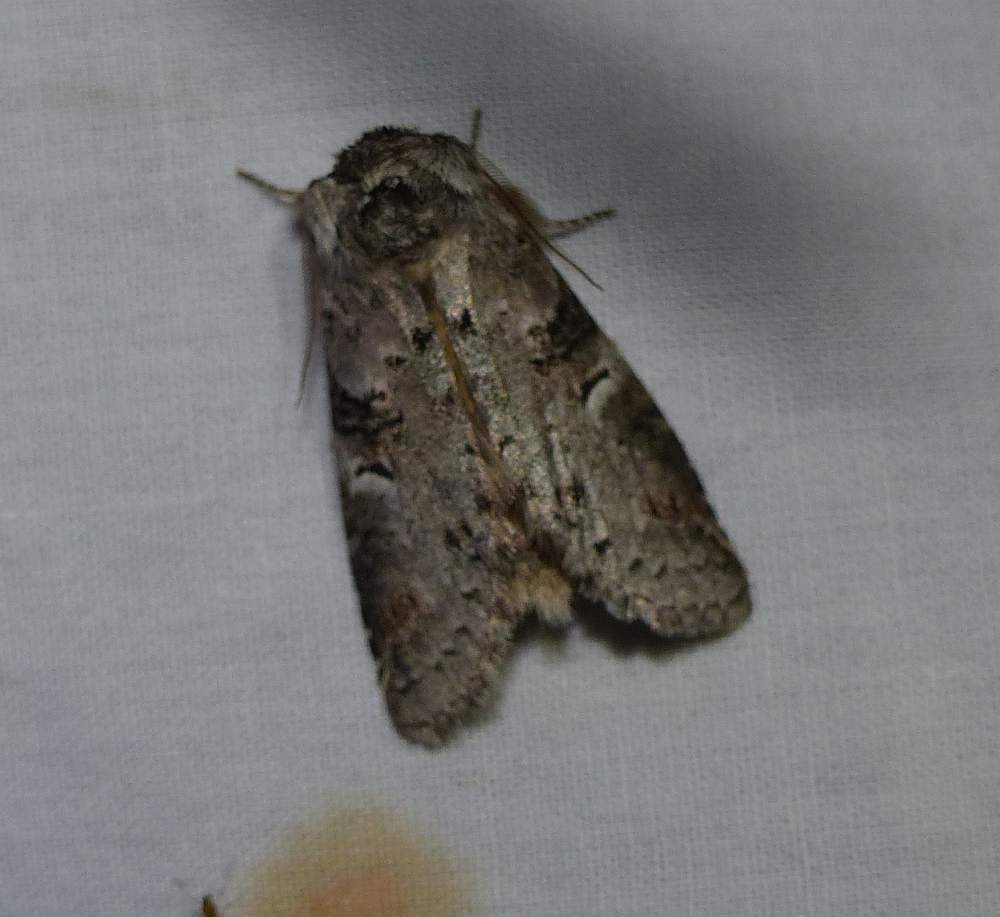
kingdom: Animalia
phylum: Arthropoda
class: Insecta
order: Lepidoptera
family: Notodontidae
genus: Ellida
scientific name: Ellida caniplaga
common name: Linden prominent
